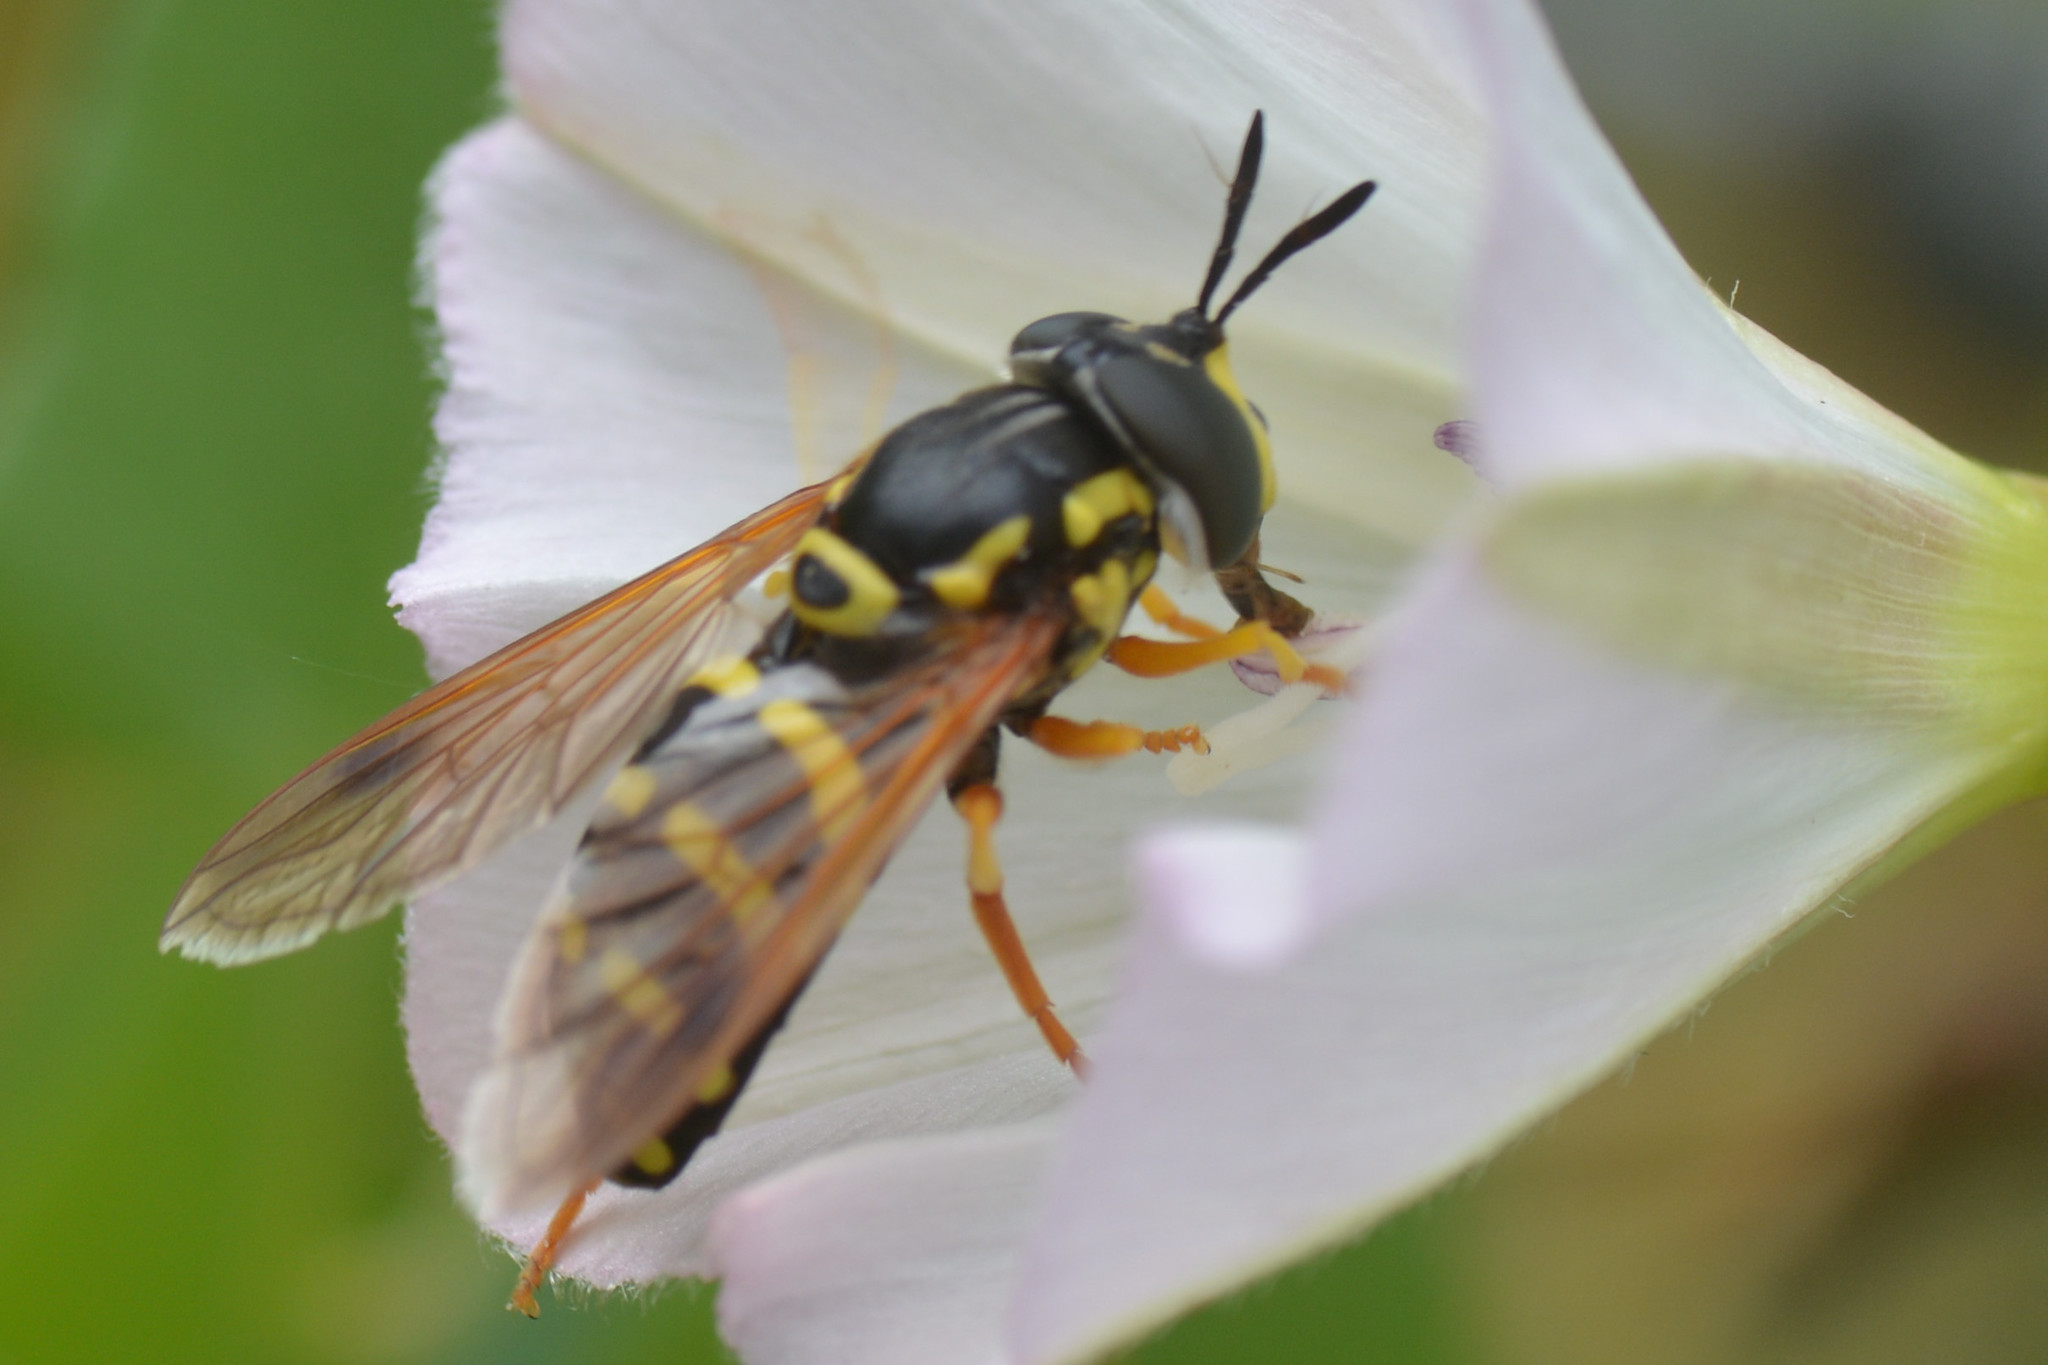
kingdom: Animalia
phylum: Arthropoda
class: Insecta
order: Diptera
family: Syrphidae
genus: Chrysotoxum
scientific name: Chrysotoxum festivum
